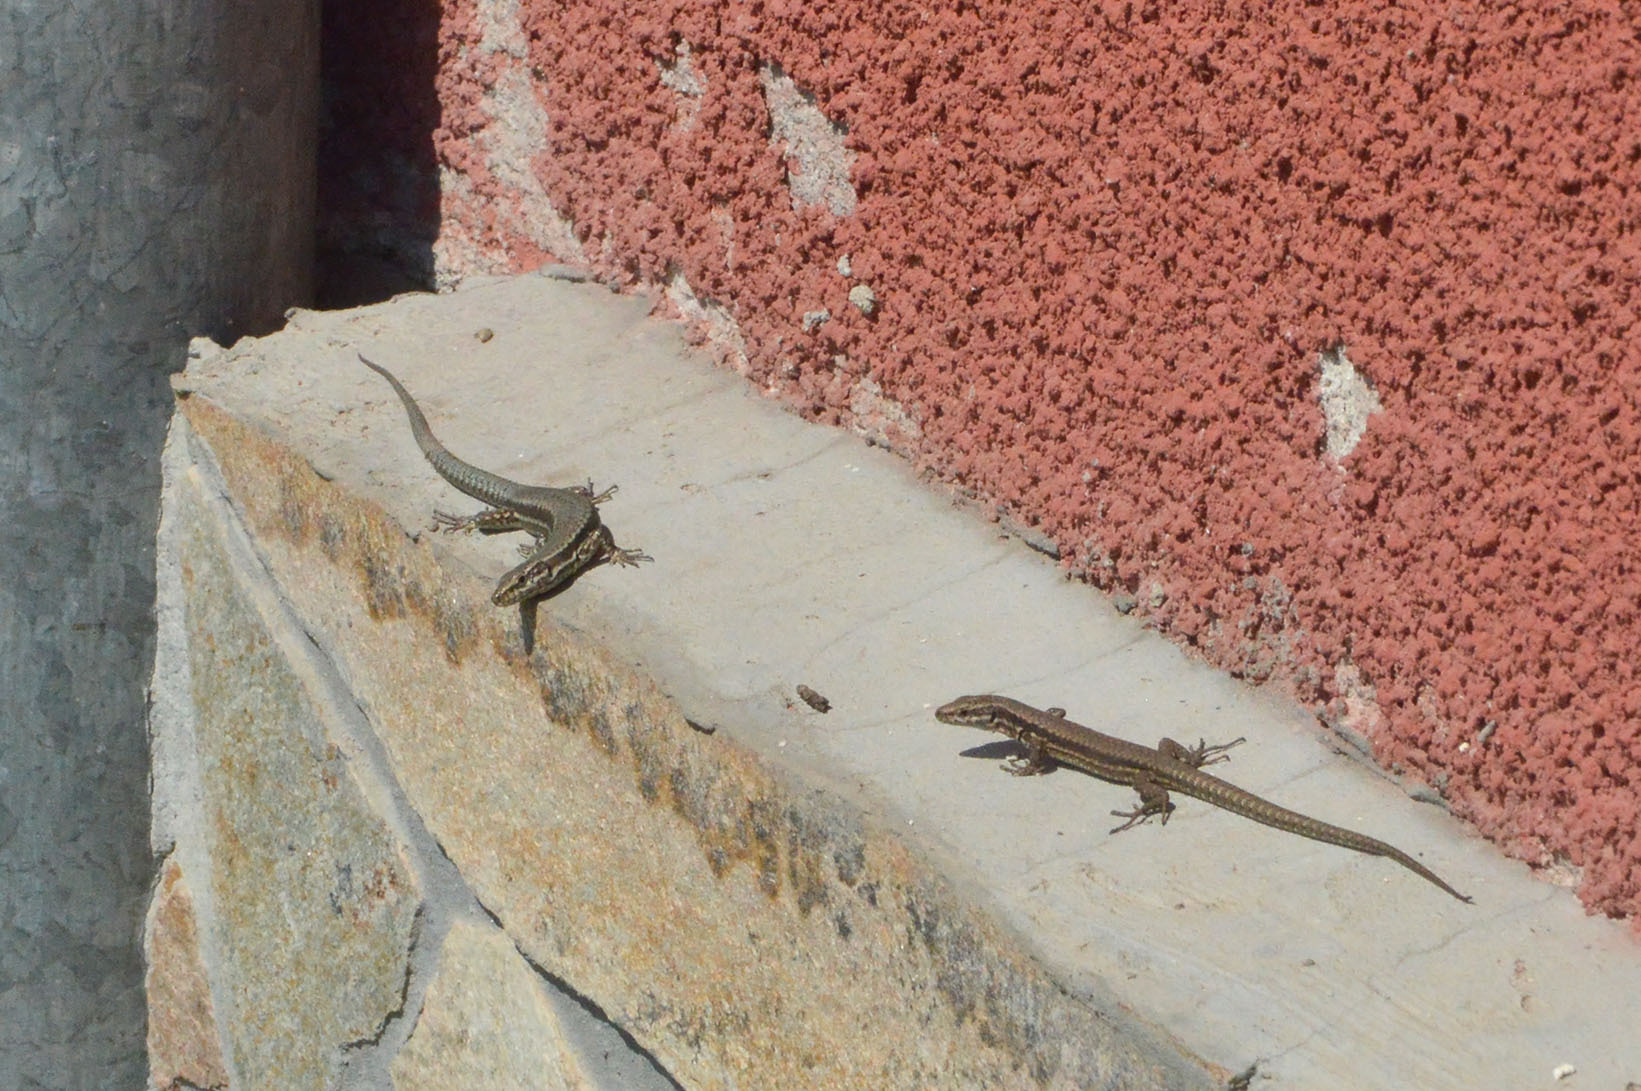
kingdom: Animalia
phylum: Chordata
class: Squamata
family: Lacertidae
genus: Podarcis
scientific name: Podarcis muralis
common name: Common wall lizard
